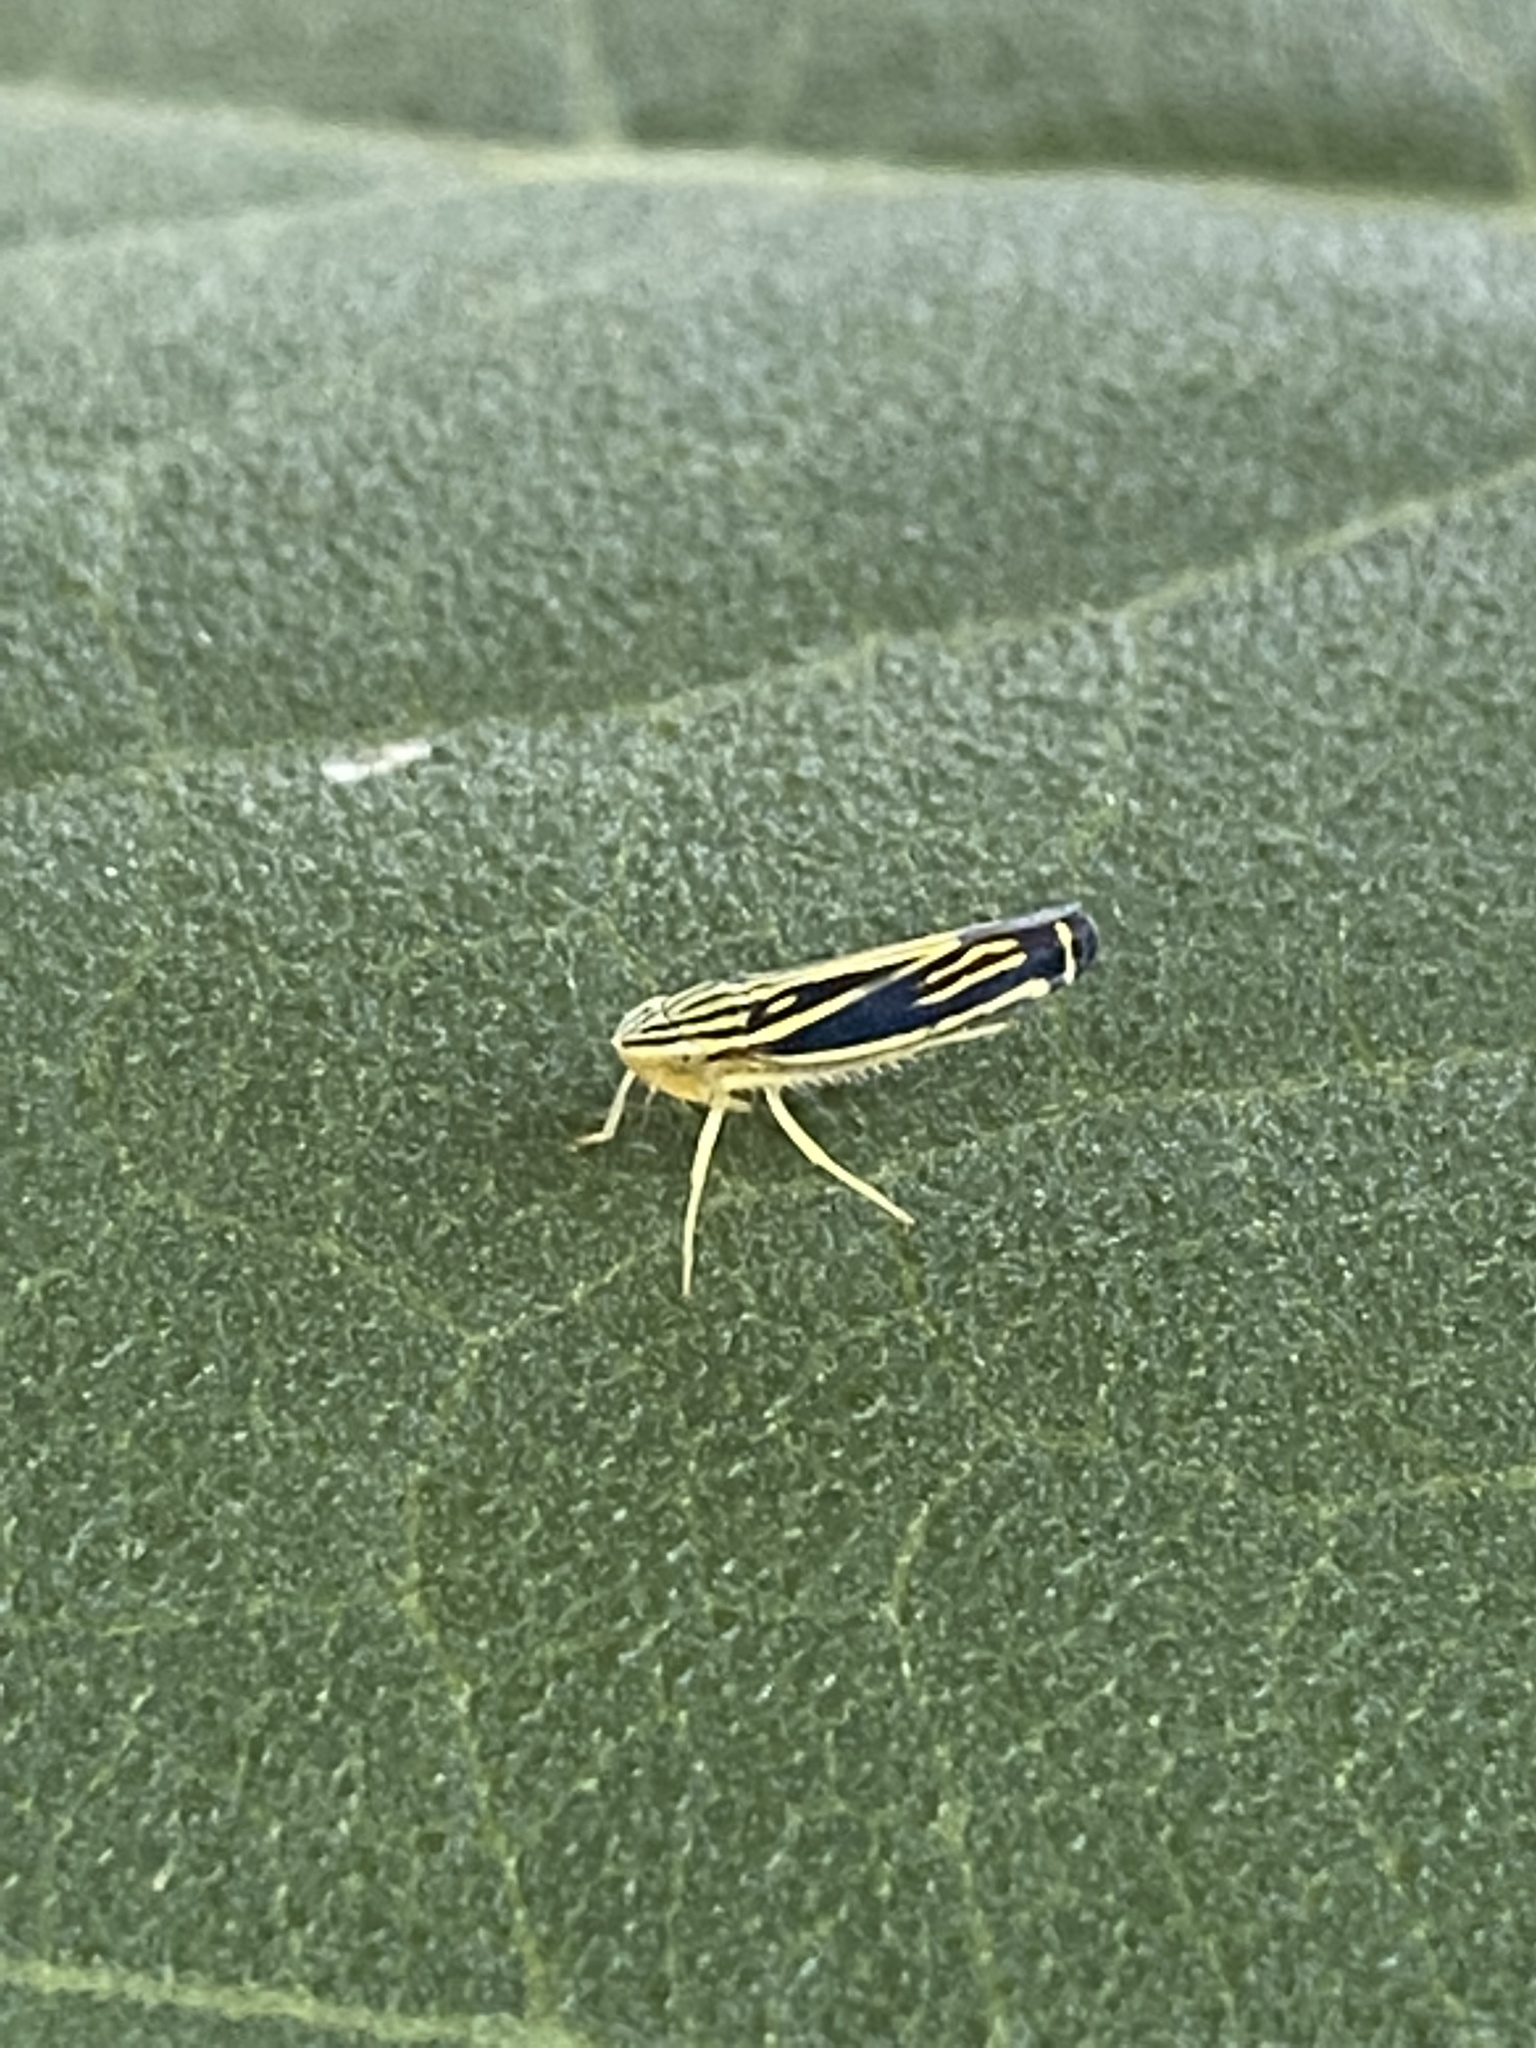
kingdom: Animalia
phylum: Arthropoda
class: Insecta
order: Hemiptera
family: Cicadellidae
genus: Sibovia
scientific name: Sibovia occatoria
